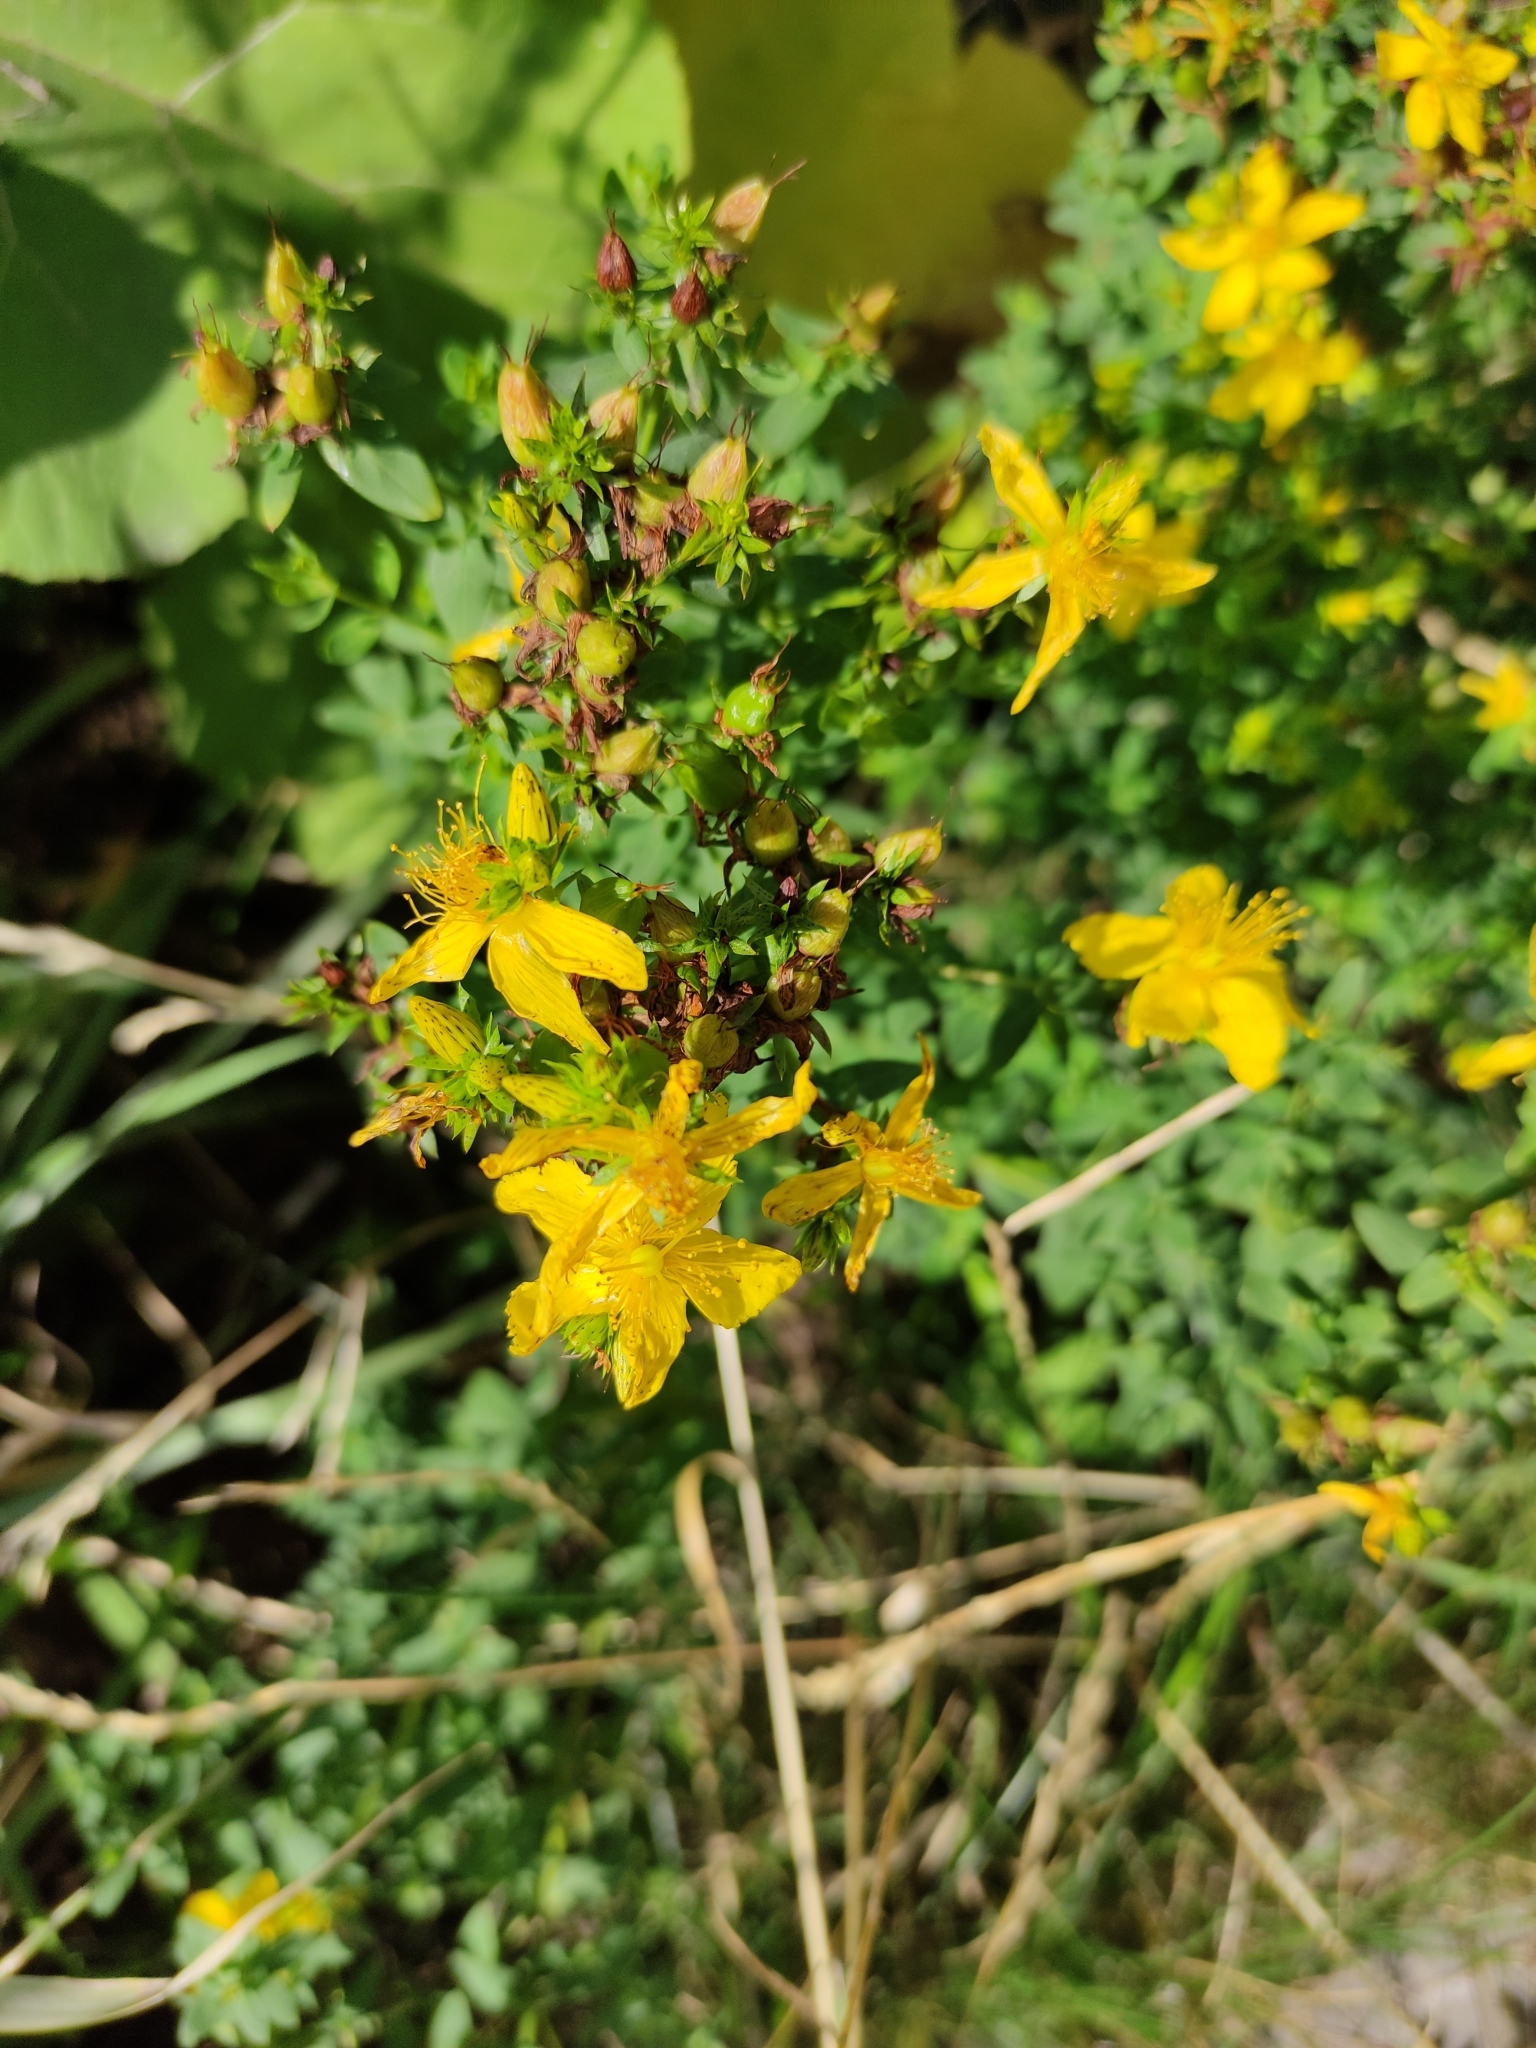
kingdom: Plantae
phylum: Tracheophyta
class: Magnoliopsida
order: Malpighiales
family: Hypericaceae
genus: Hypericum
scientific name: Hypericum perforatum
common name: Common st. johnswort
